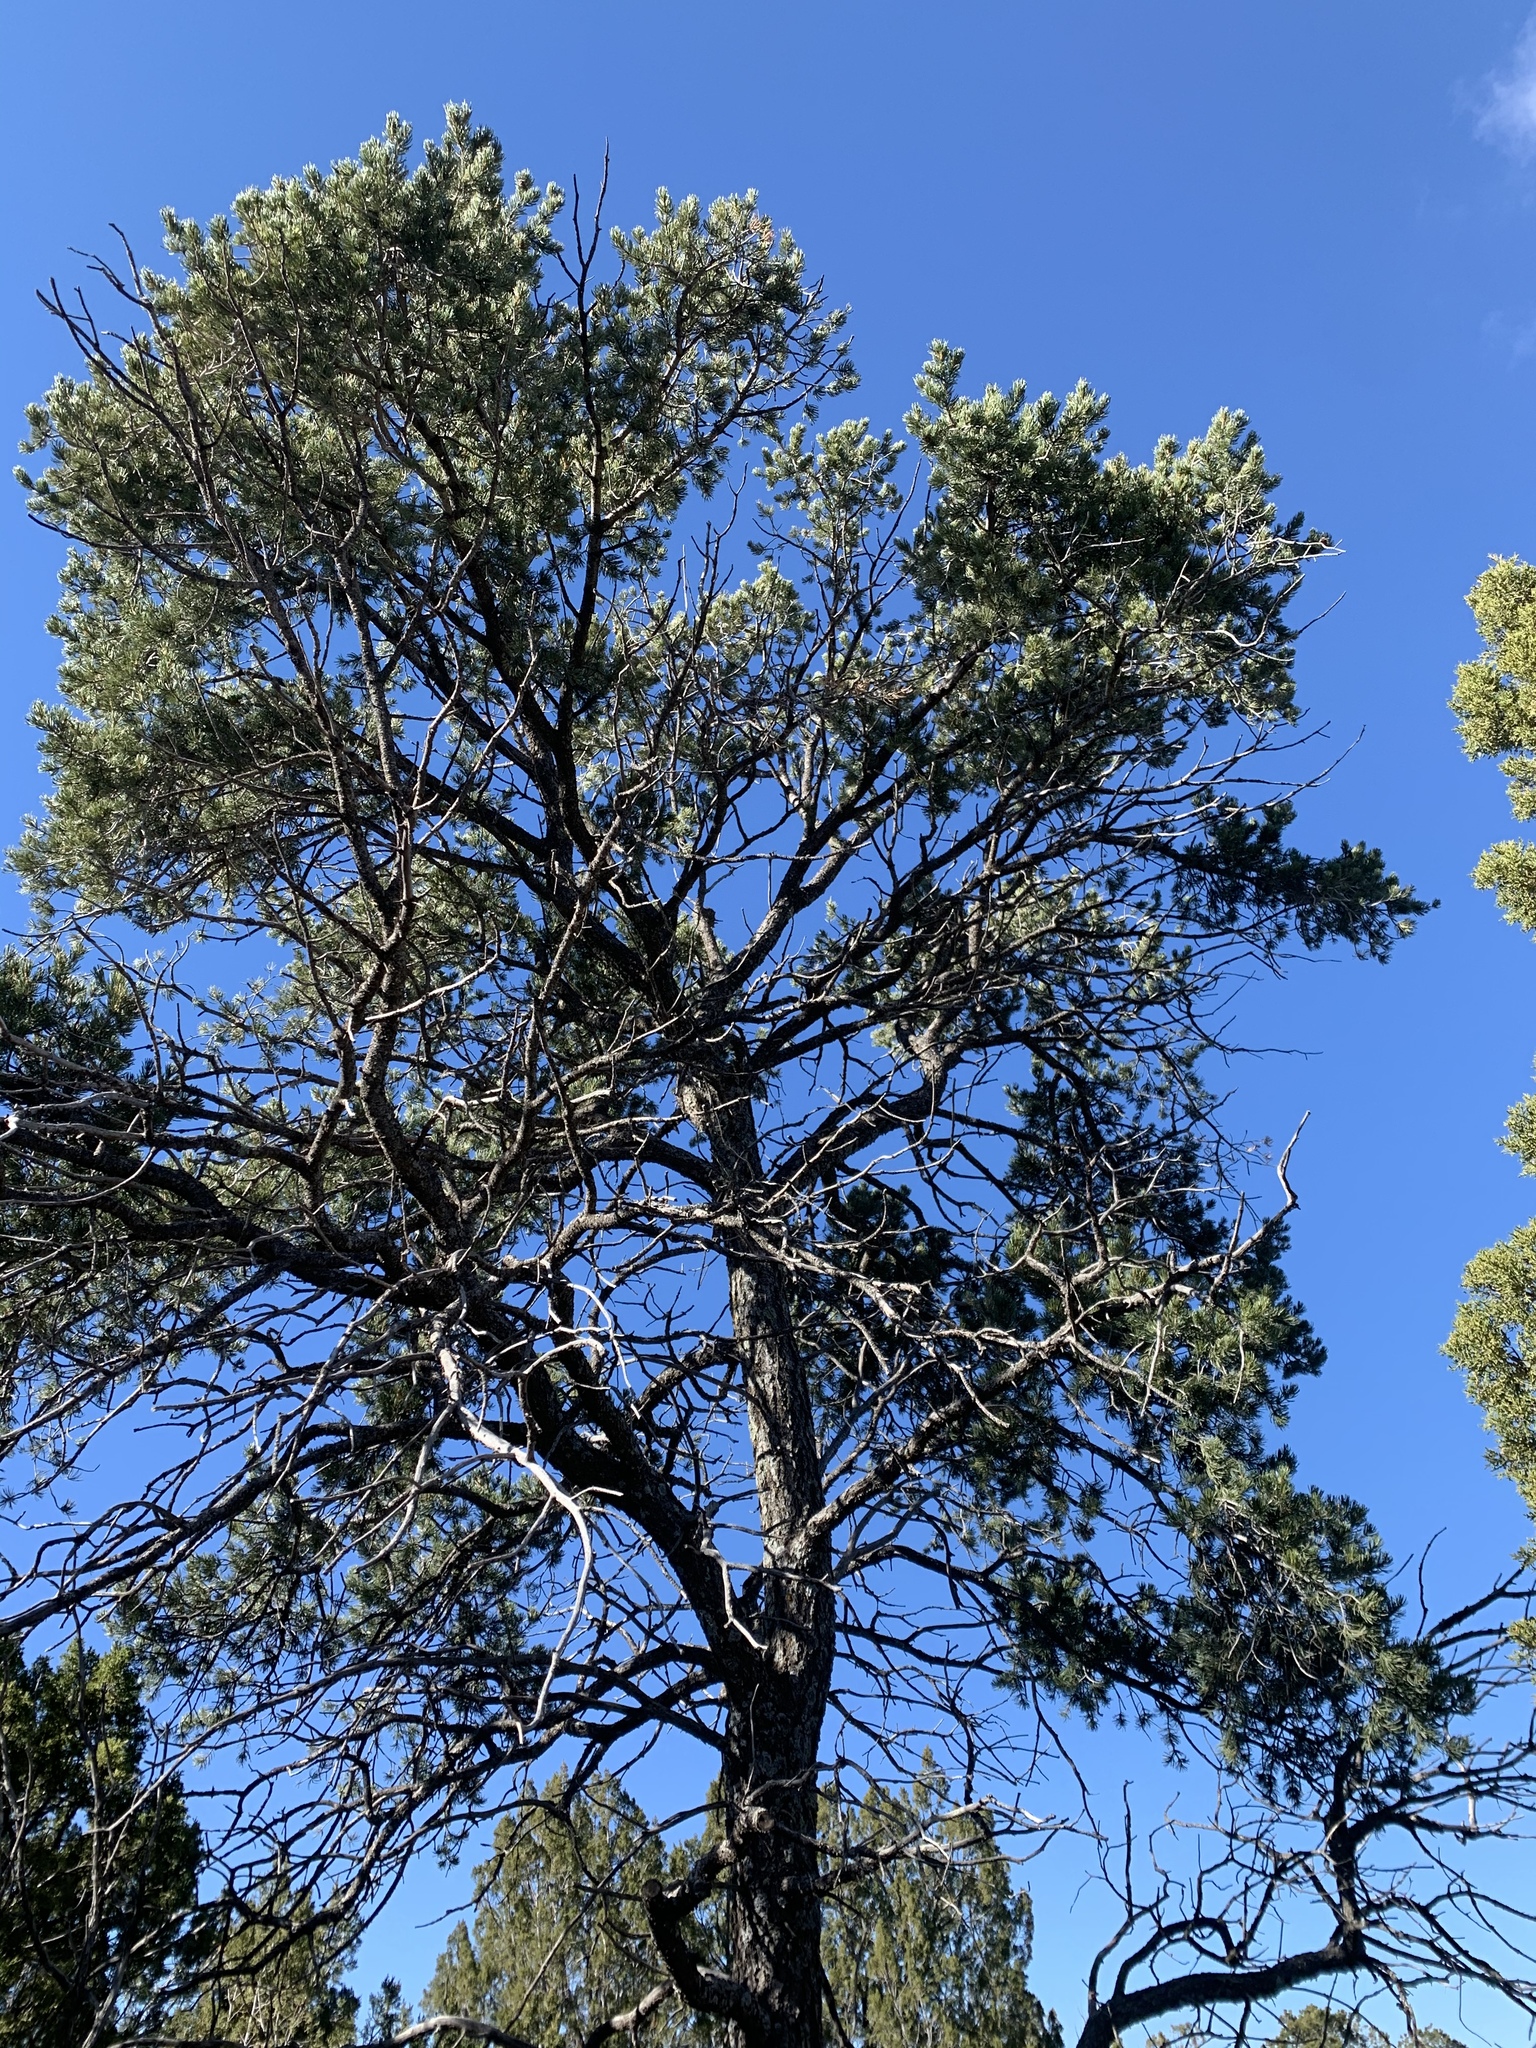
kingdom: Plantae
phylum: Tracheophyta
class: Pinopsida
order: Pinales
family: Pinaceae
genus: Pinus
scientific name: Pinus edulis
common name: Colorado pinyon
